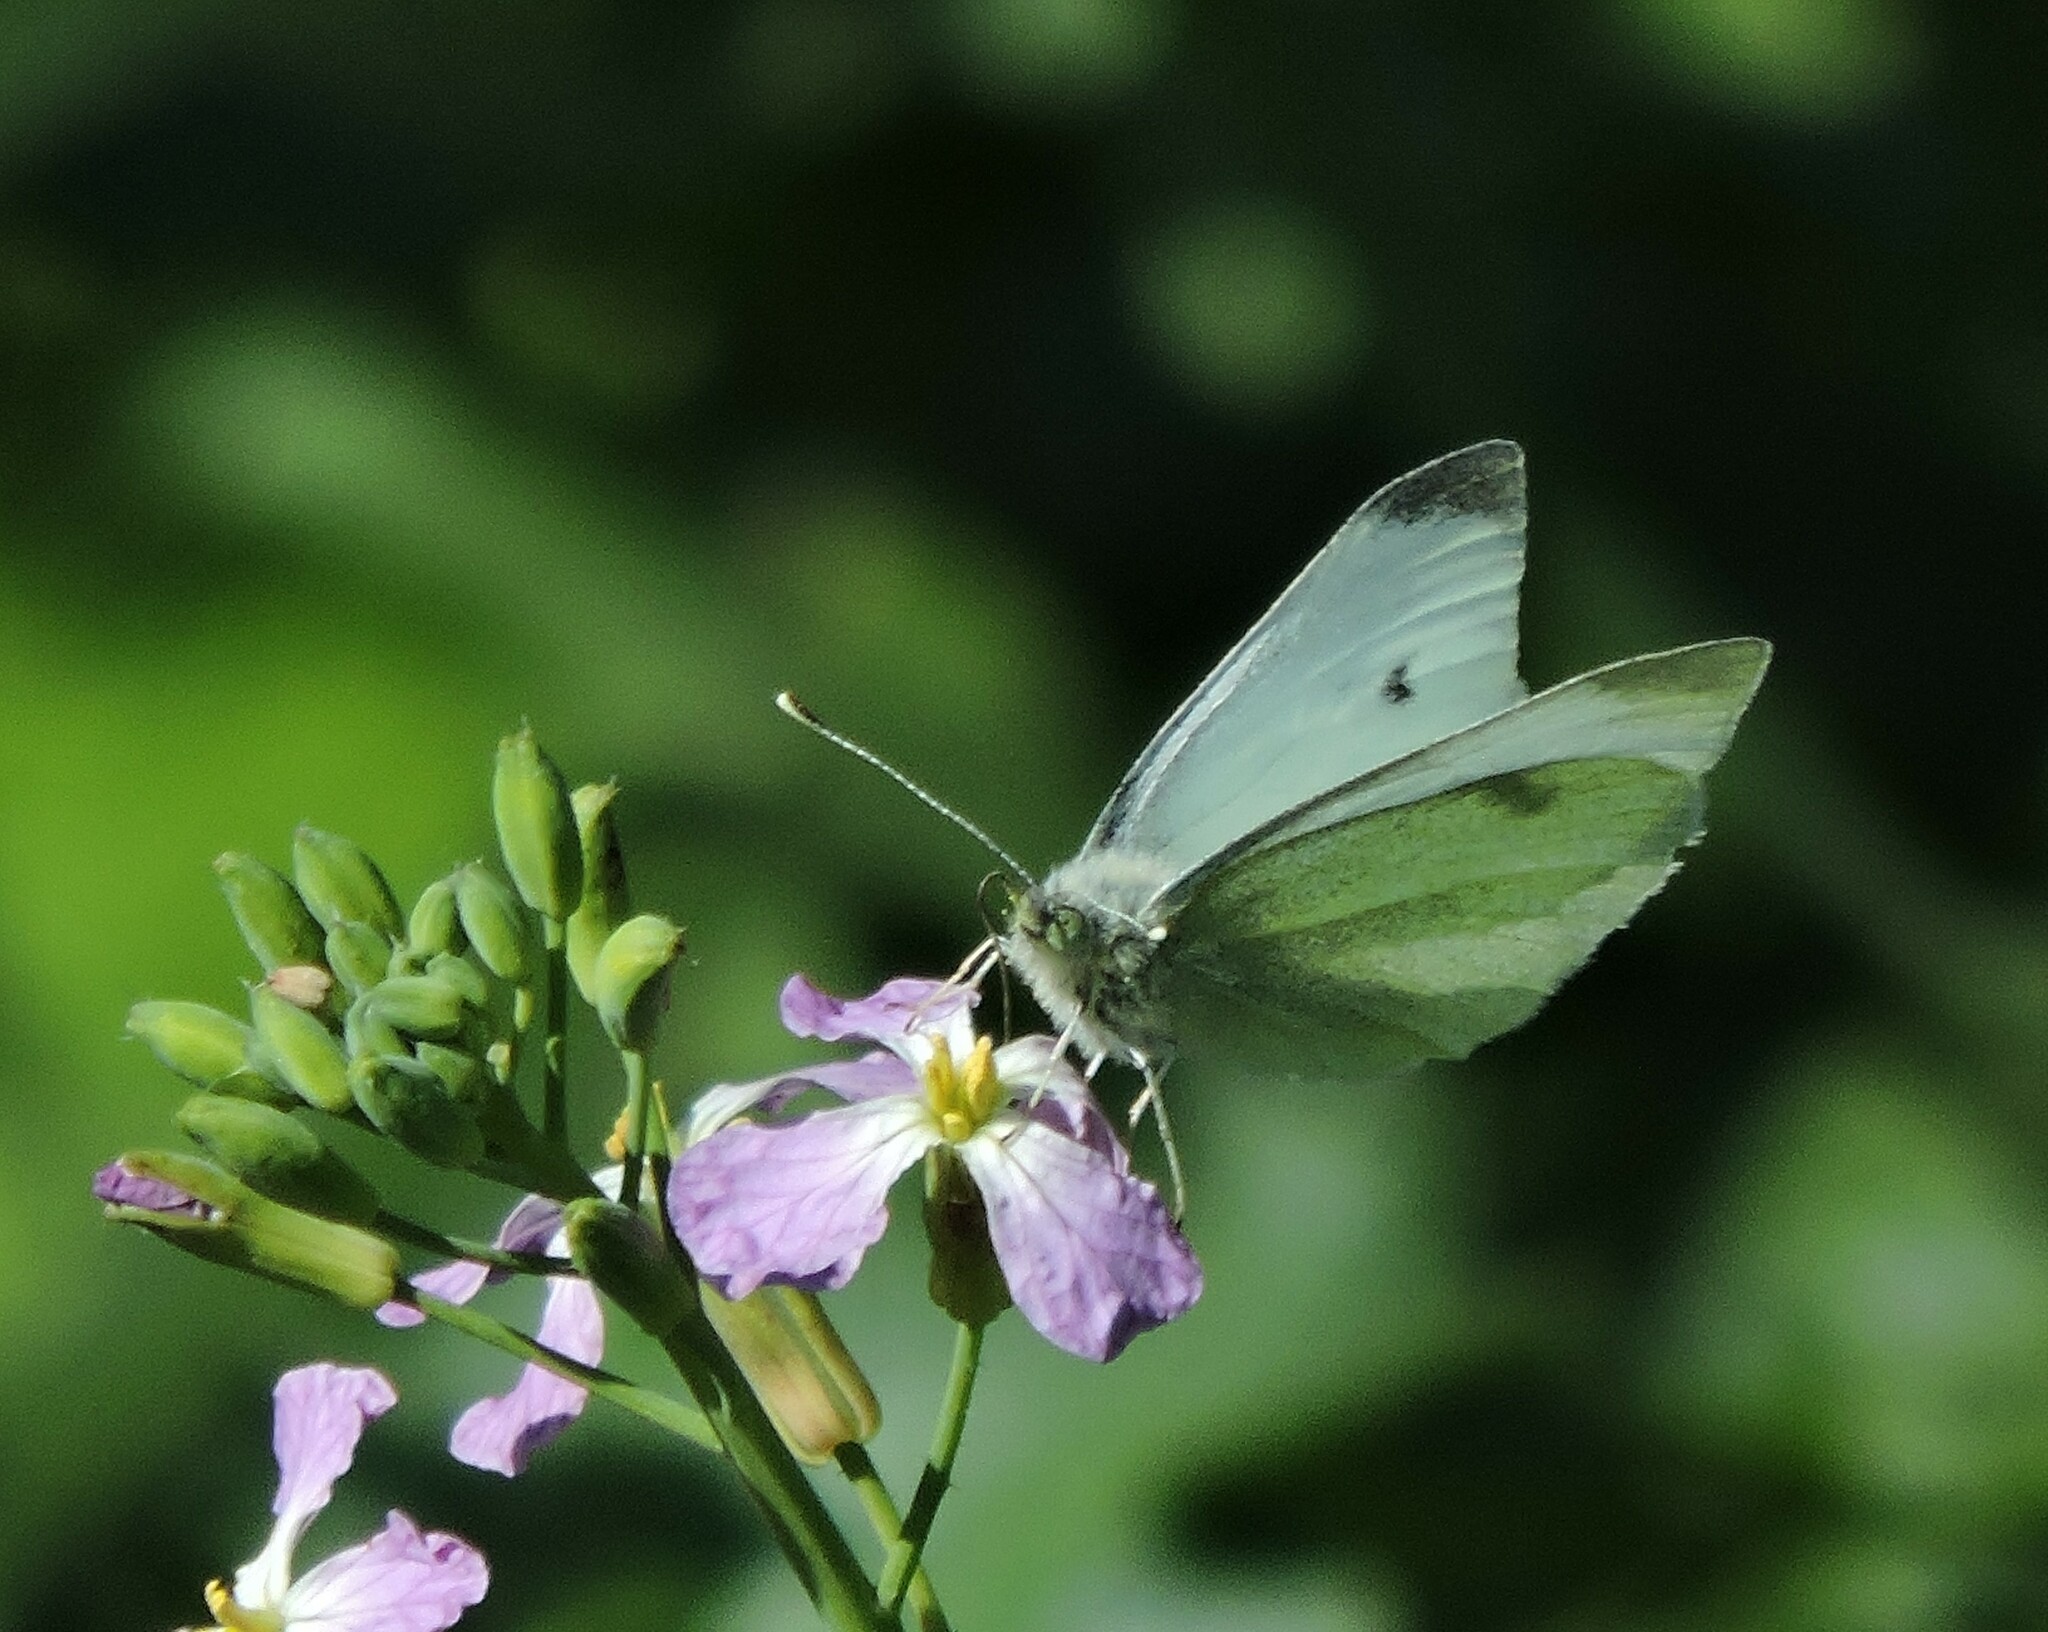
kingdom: Animalia
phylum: Arthropoda
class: Insecta
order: Lepidoptera
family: Pieridae
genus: Pieris
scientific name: Pieris rapae
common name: Small white
